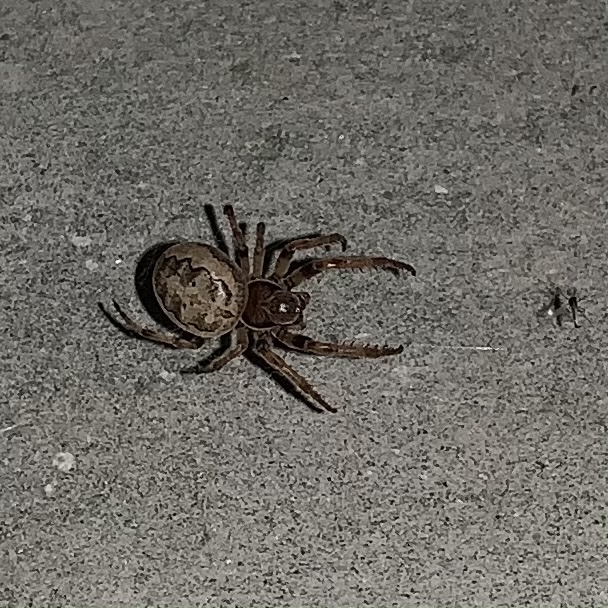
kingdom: Animalia
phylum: Arthropoda
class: Arachnida
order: Araneae
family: Araneidae
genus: Larinioides
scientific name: Larinioides cornutus
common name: Furrow orbweaver
